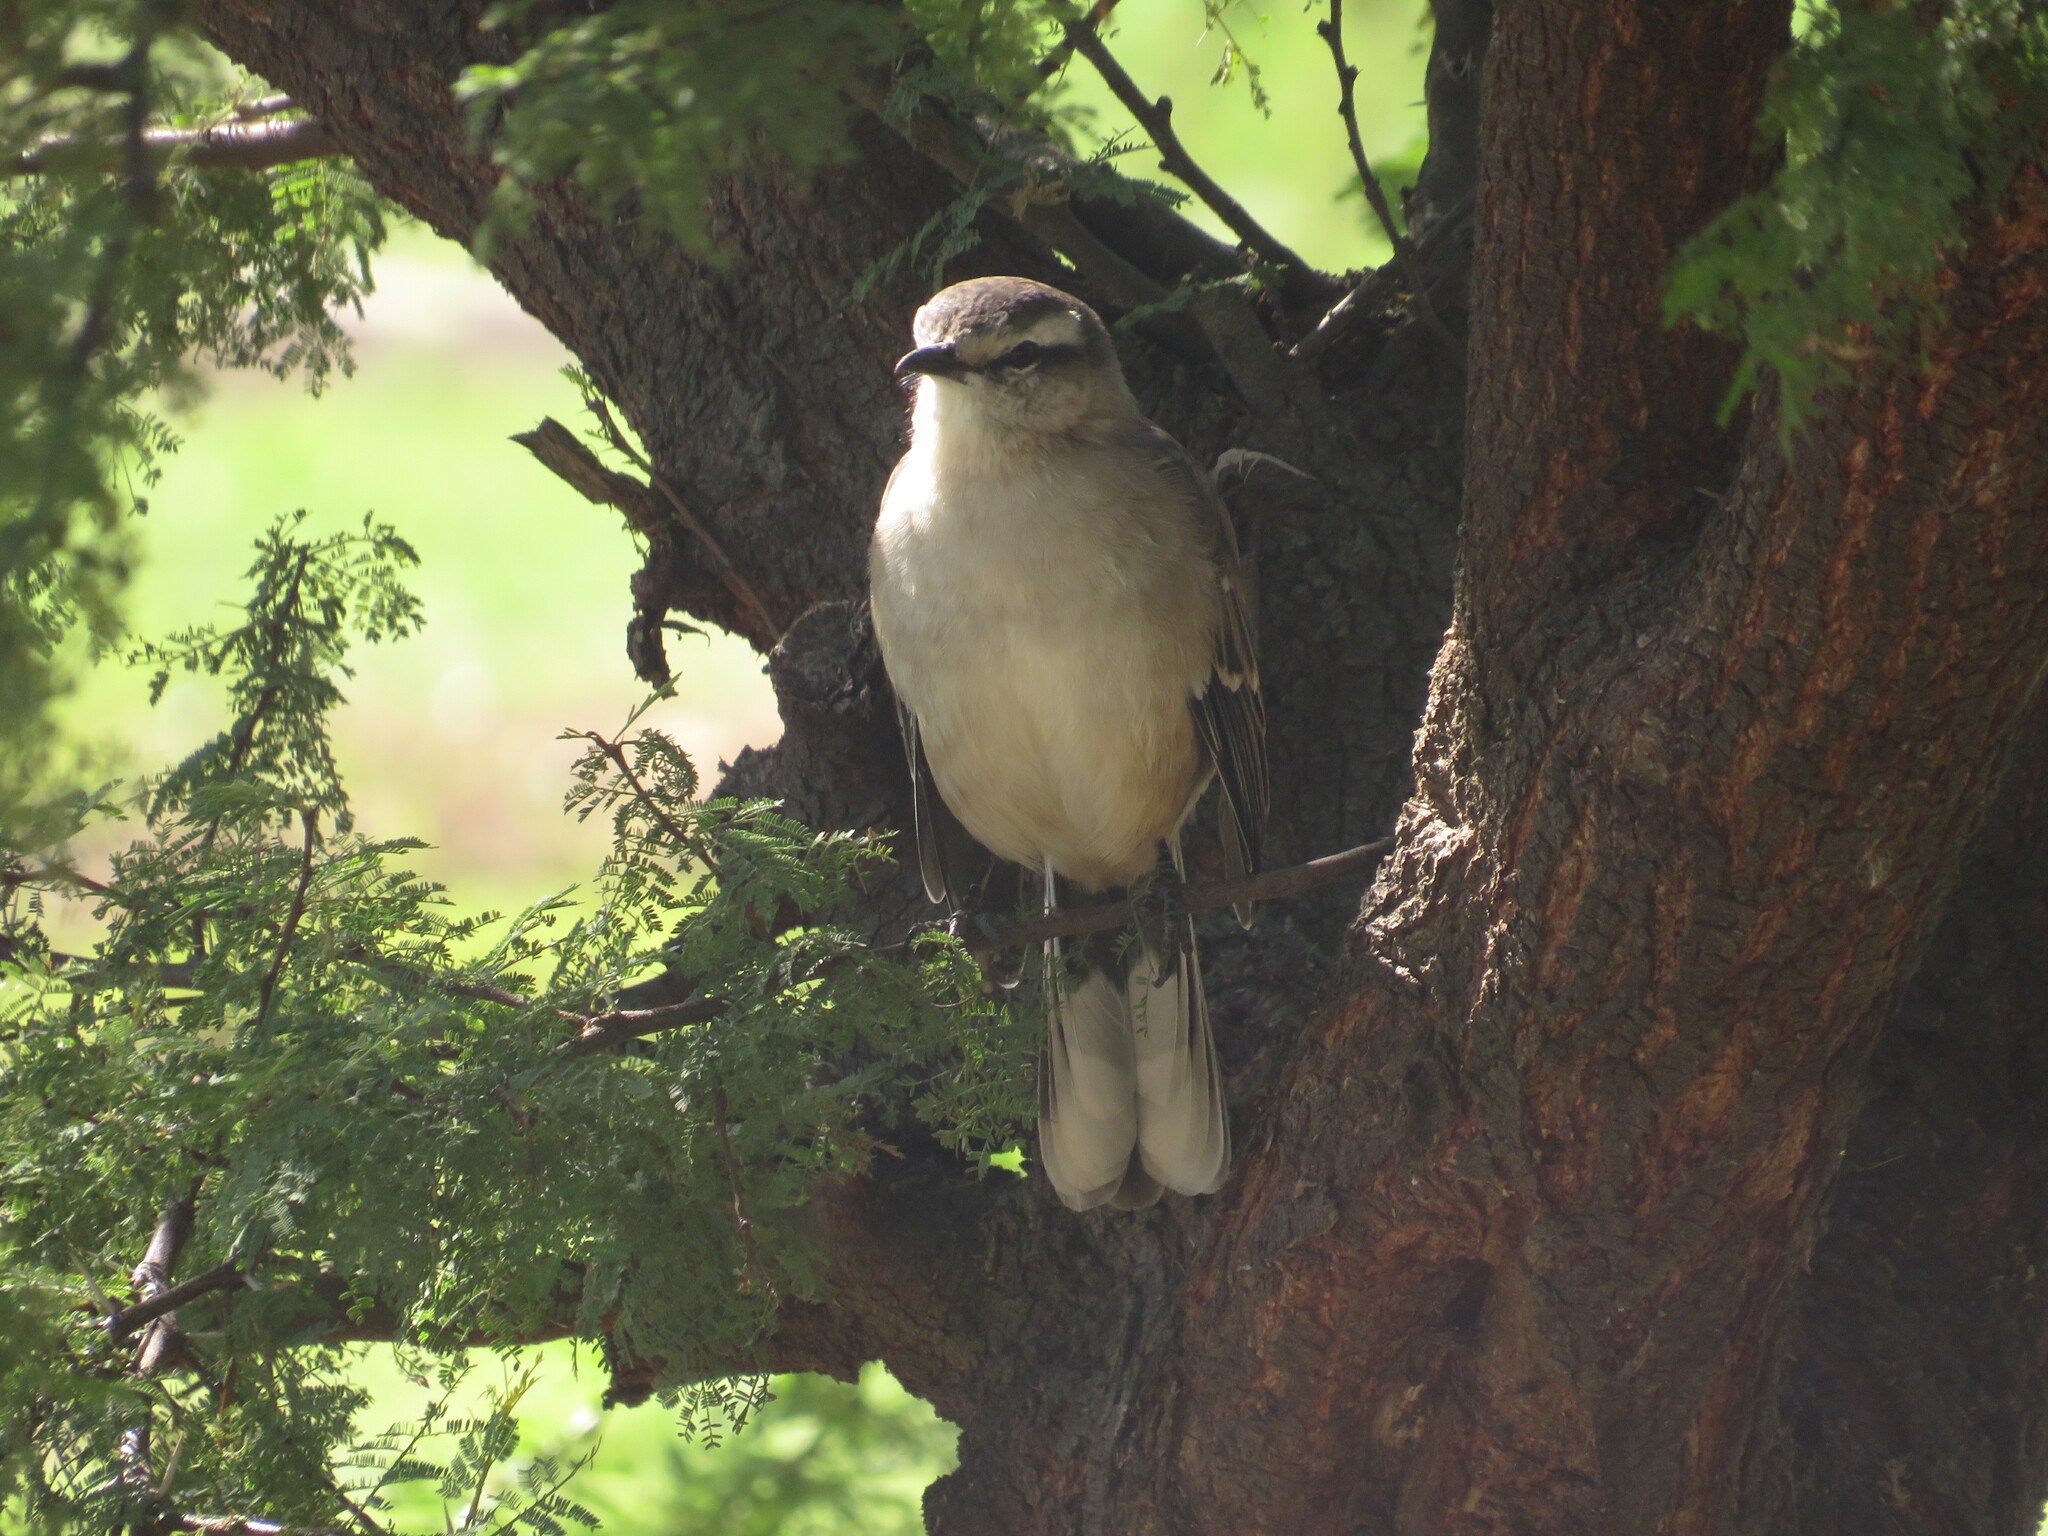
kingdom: Animalia
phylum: Chordata
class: Aves
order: Passeriformes
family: Mimidae
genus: Mimus
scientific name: Mimus saturninus
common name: Chalk-browed mockingbird
